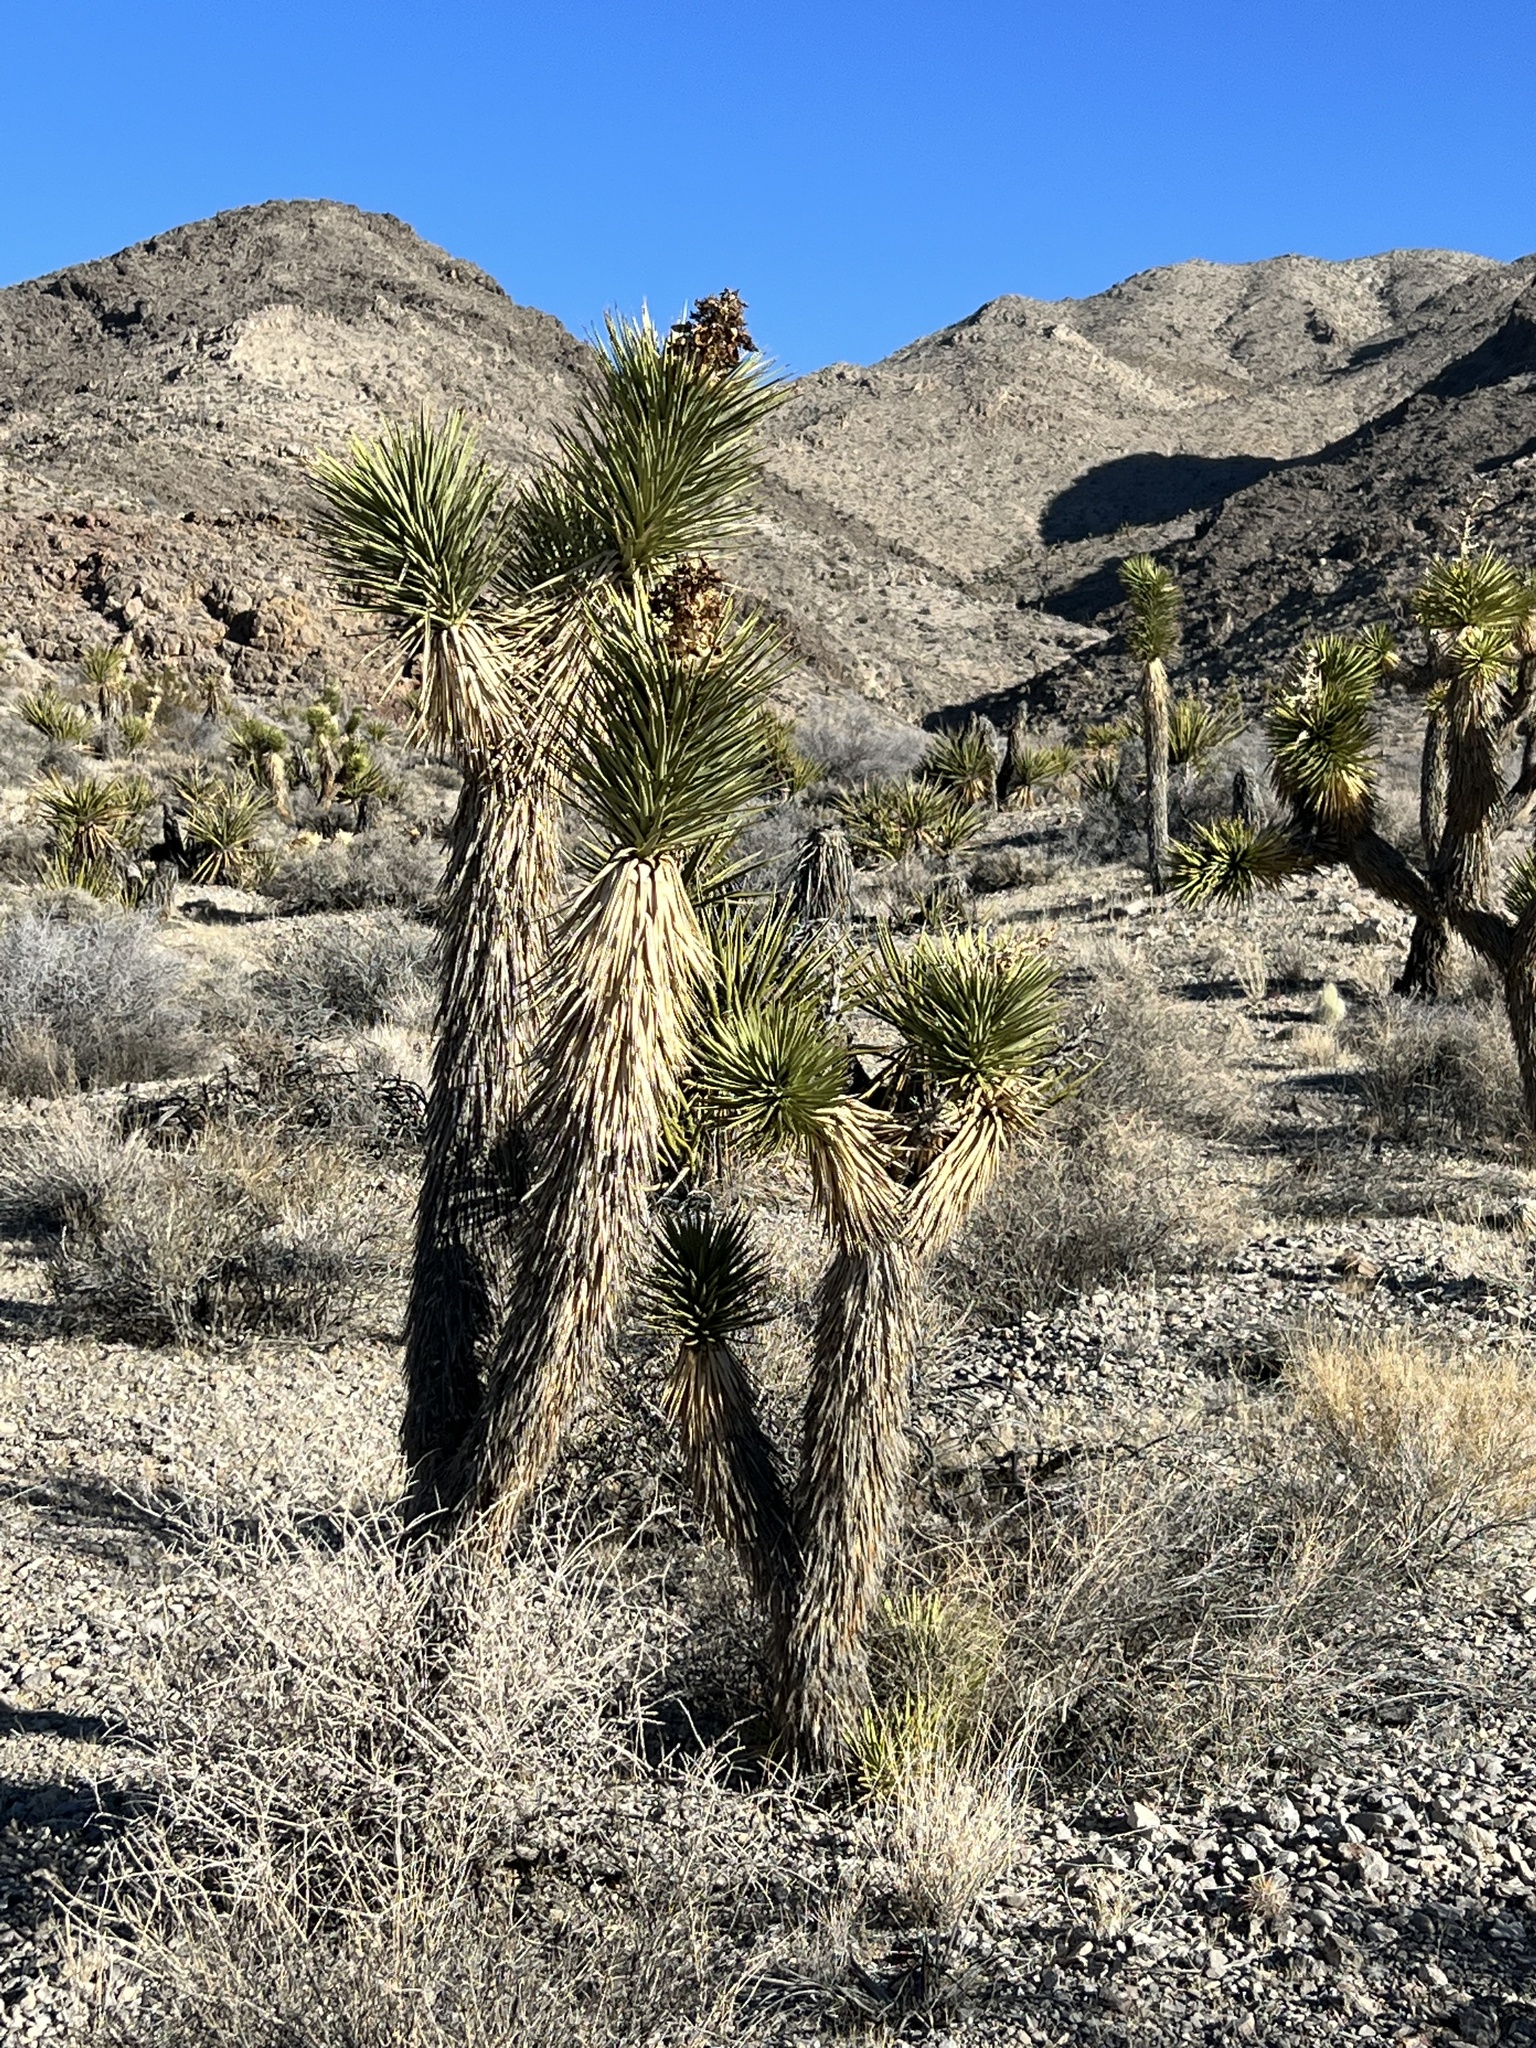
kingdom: Plantae
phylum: Tracheophyta
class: Liliopsida
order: Asparagales
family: Asparagaceae
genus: Yucca
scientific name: Yucca brevifolia
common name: Joshua tree
